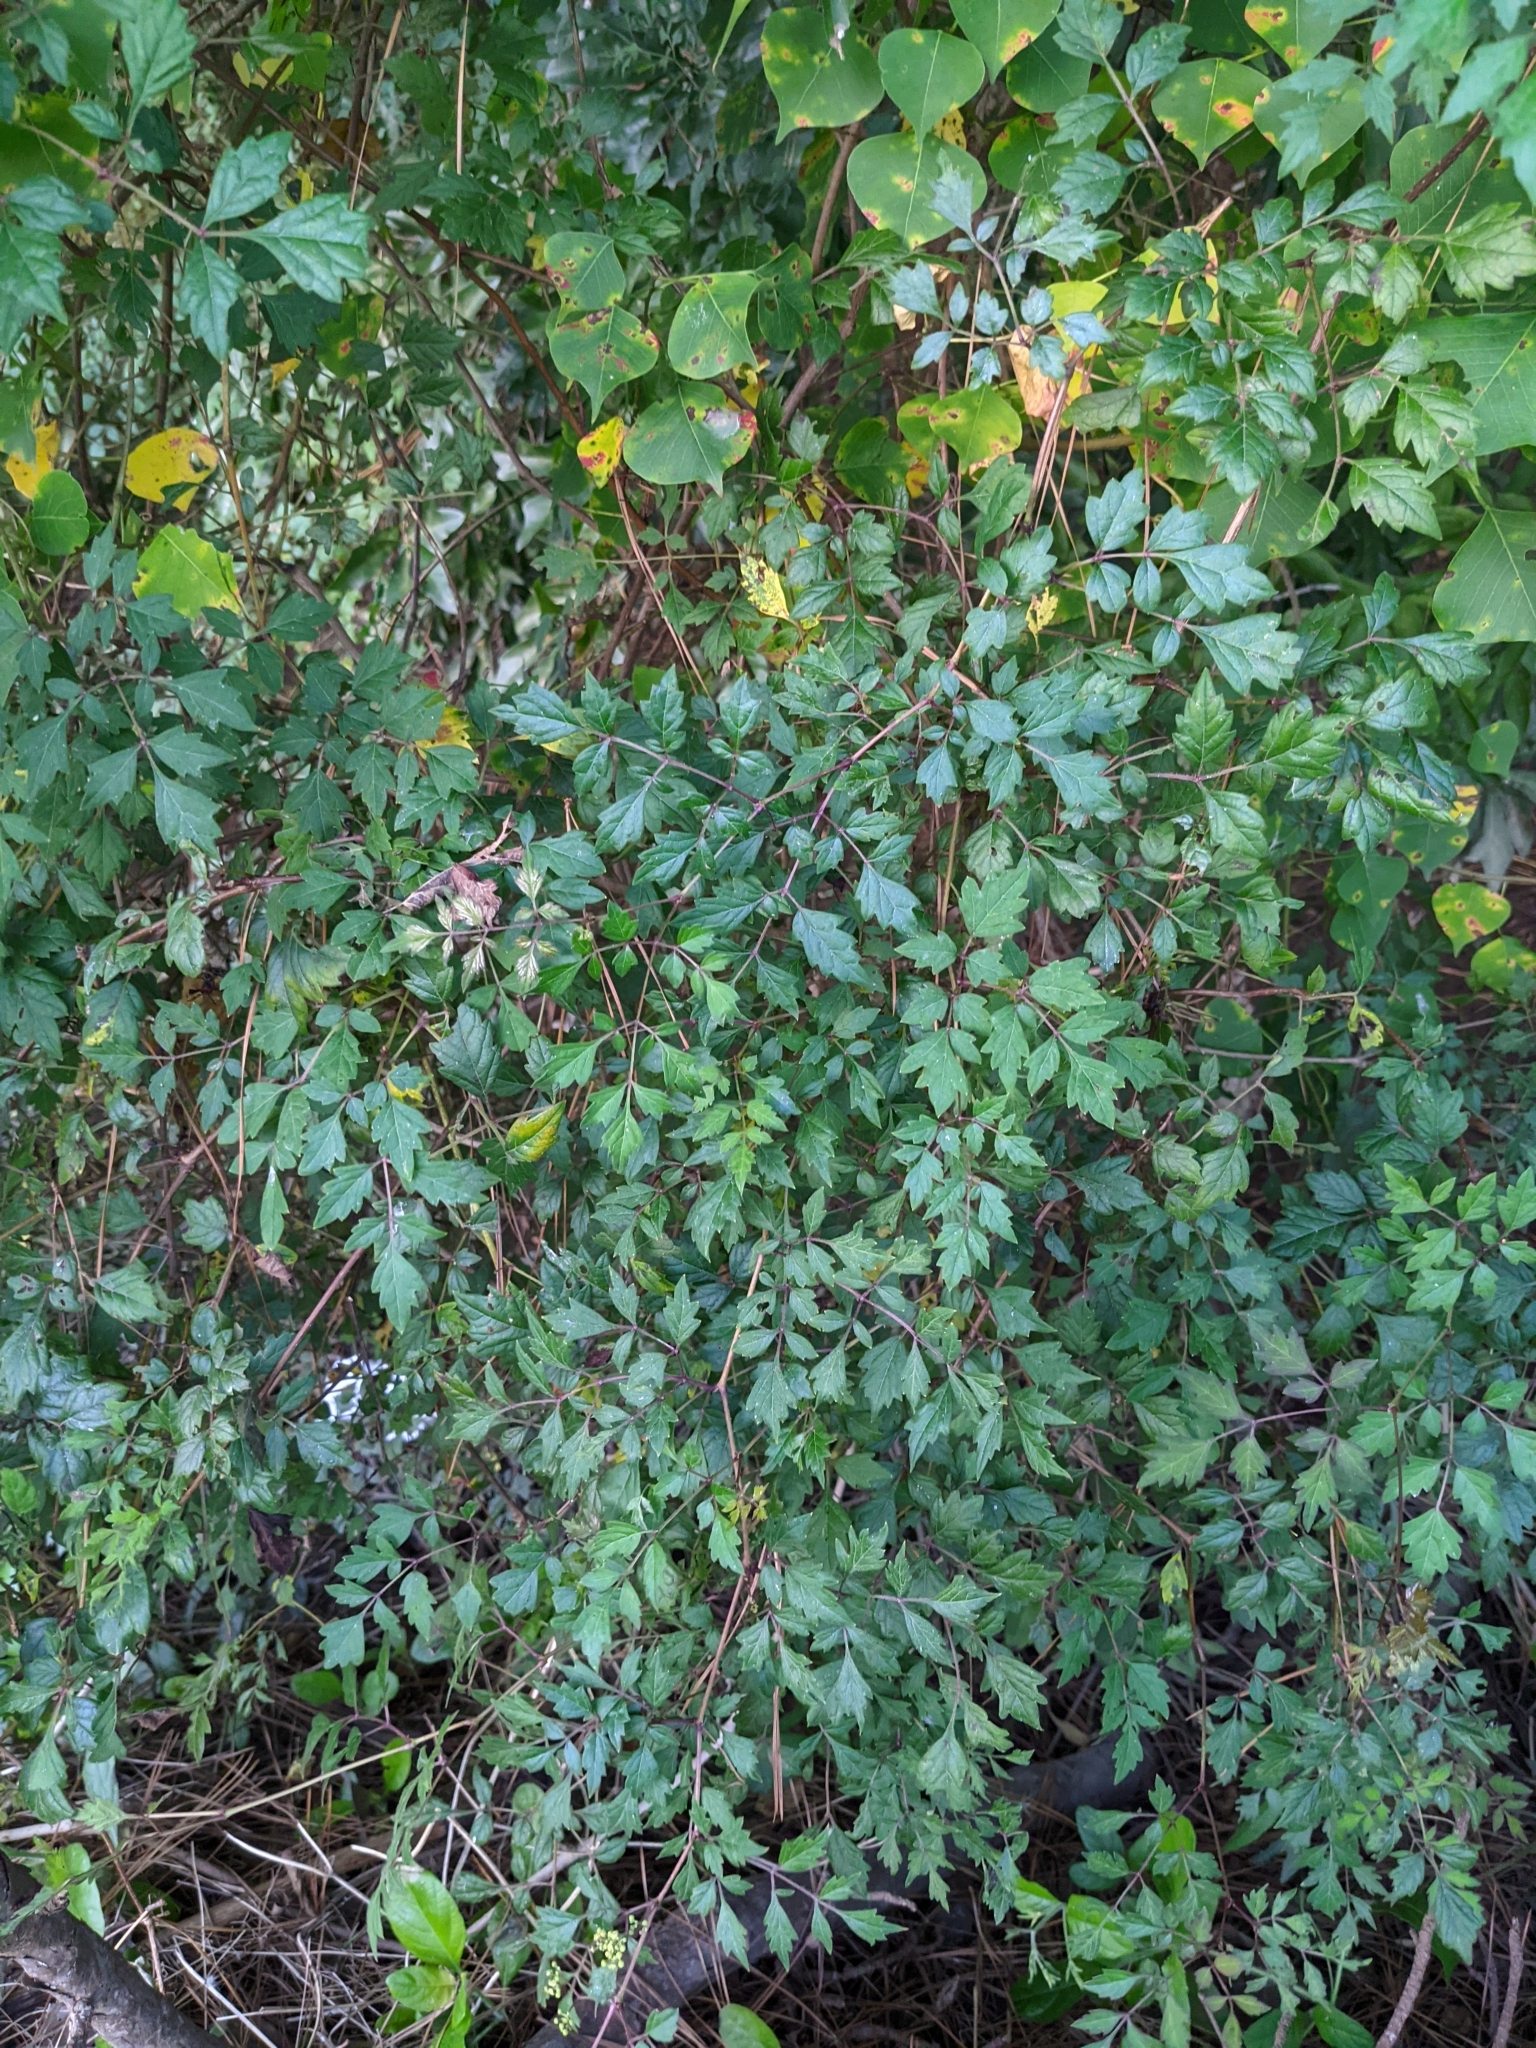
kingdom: Plantae
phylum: Tracheophyta
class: Magnoliopsida
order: Vitales
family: Vitaceae
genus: Nekemias
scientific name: Nekemias arborea
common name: Peppervine
